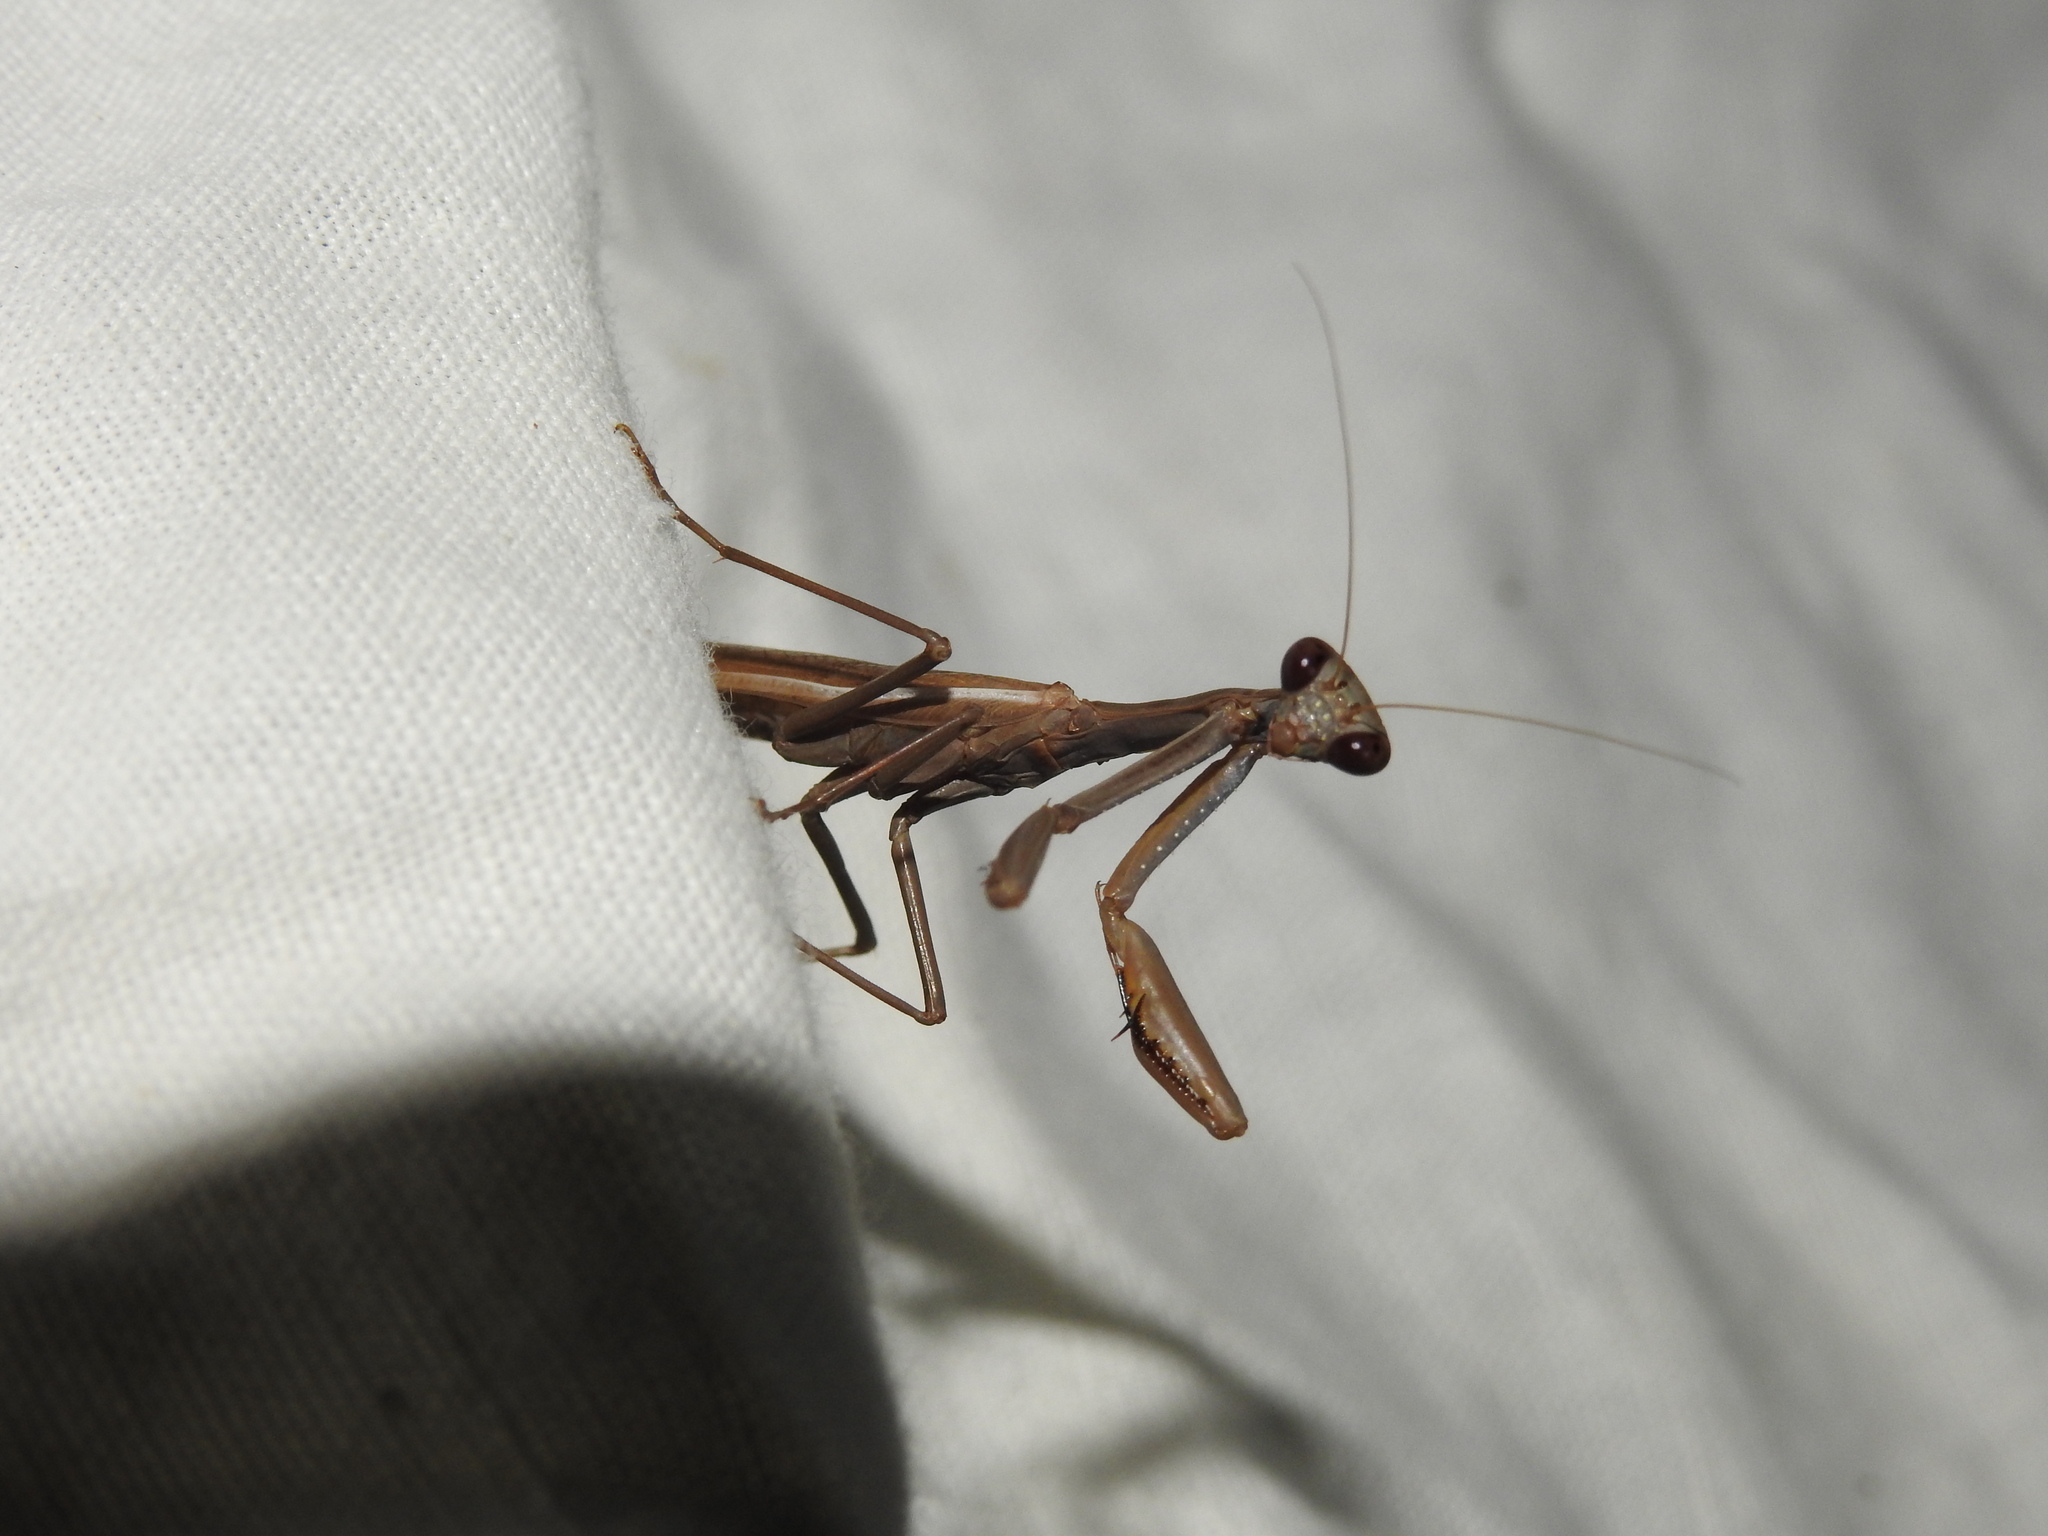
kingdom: Animalia
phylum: Arthropoda
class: Insecta
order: Mantodea
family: Eremiaphilidae
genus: Iris
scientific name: Iris oratoria
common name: Mediterranean mantis
